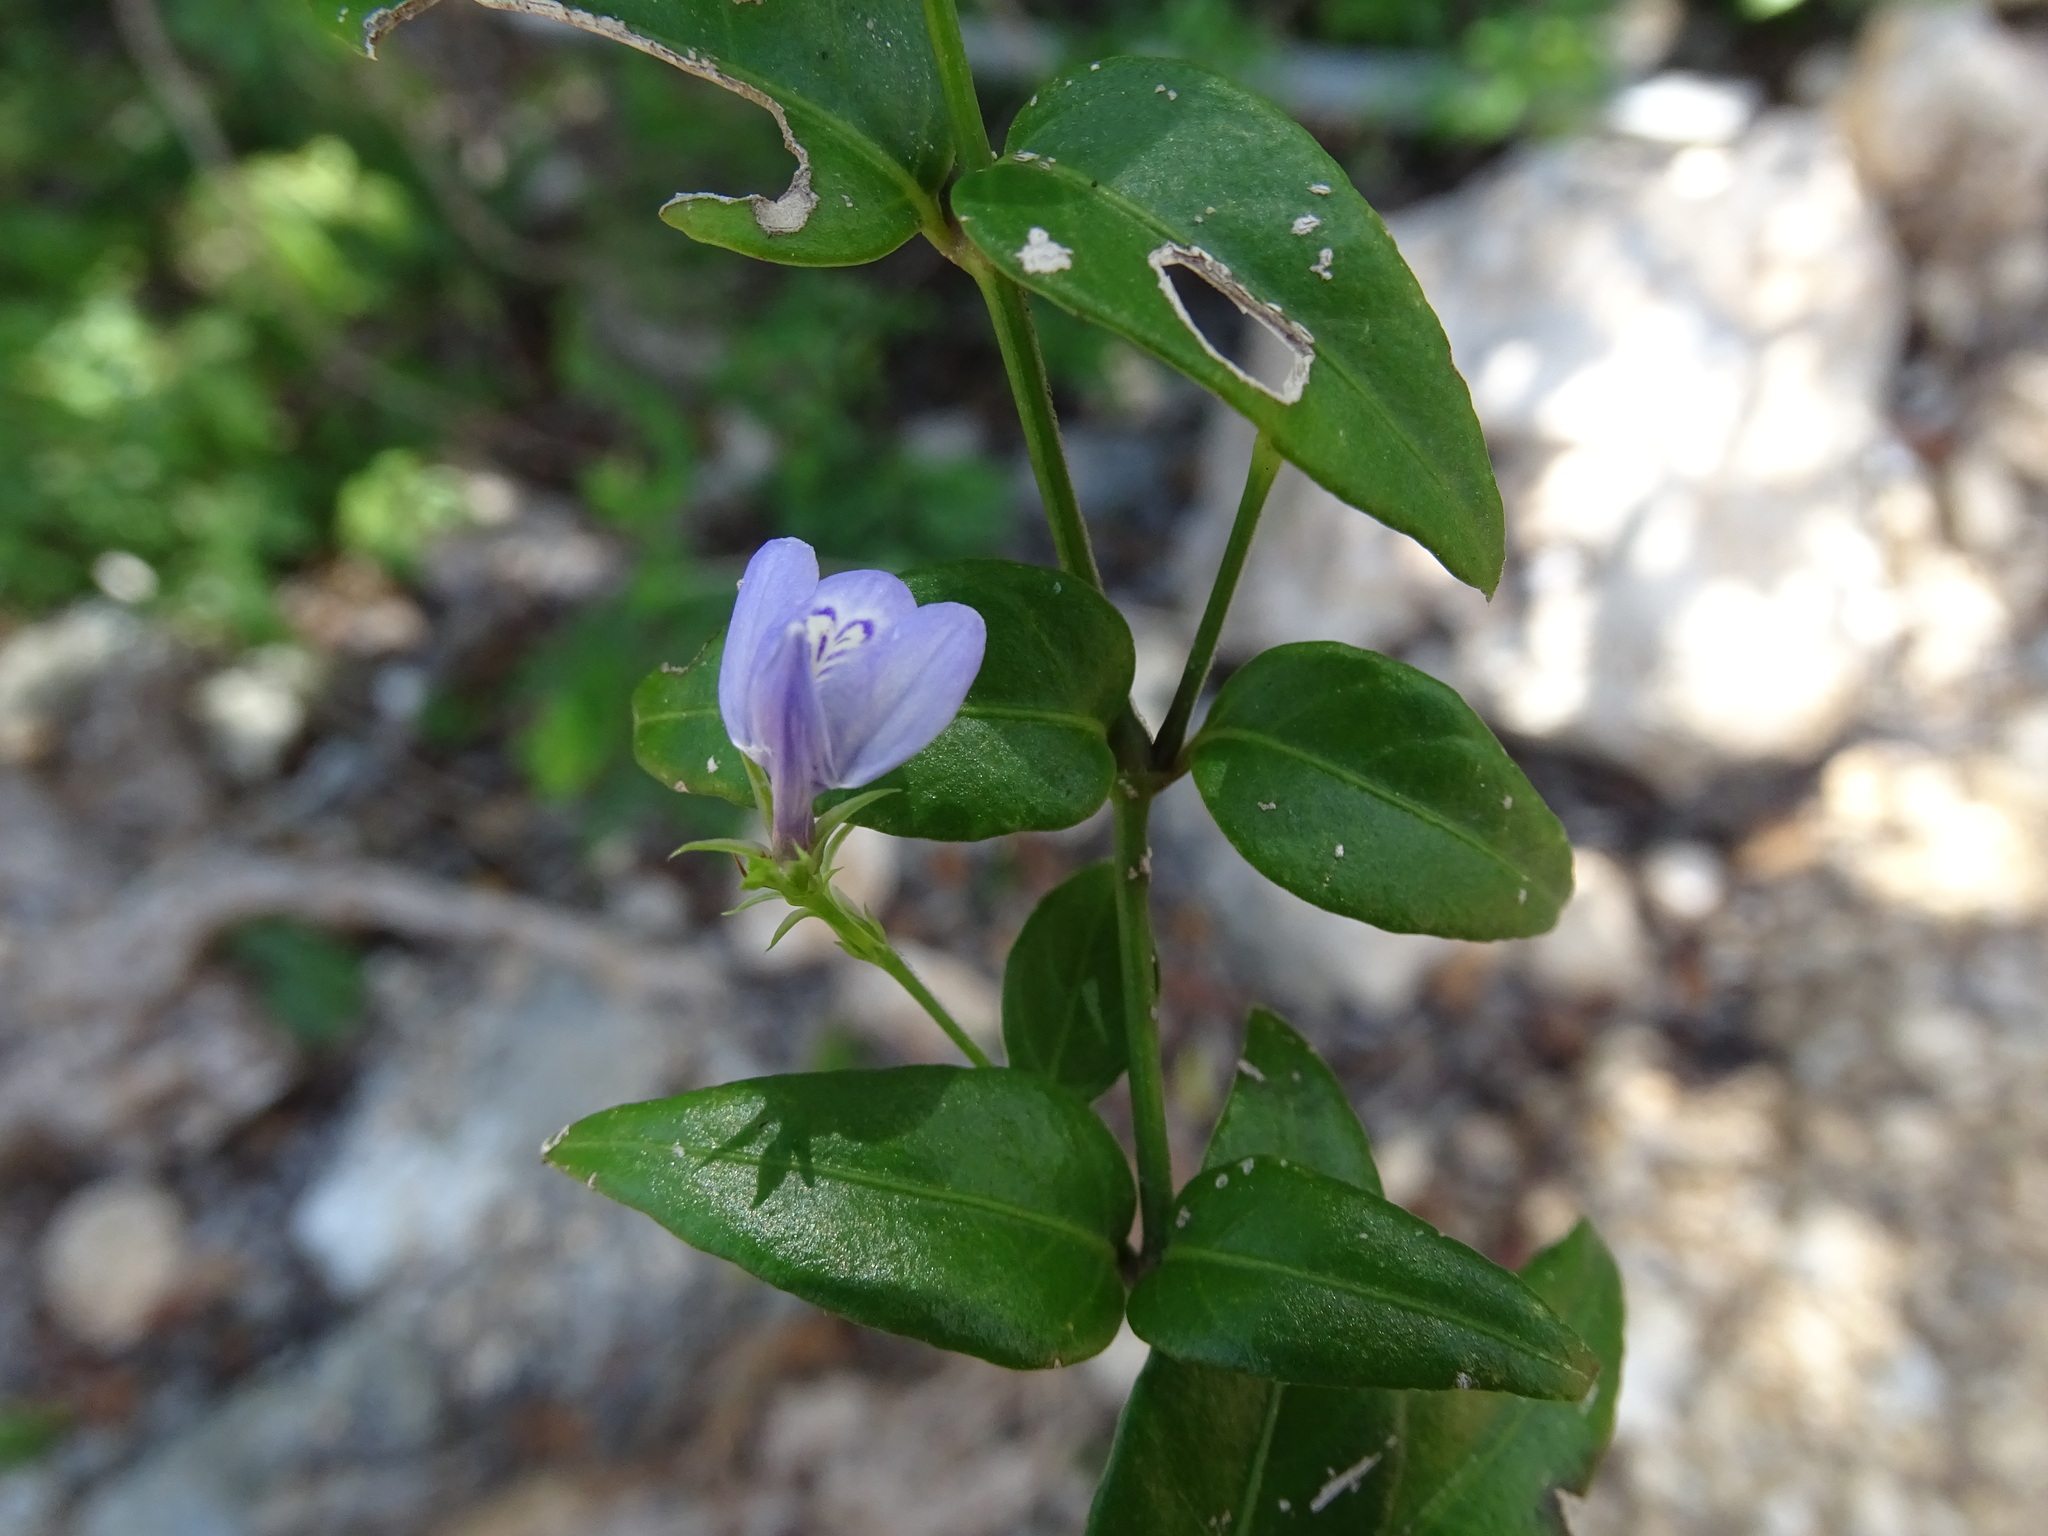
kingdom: Plantae
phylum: Tracheophyta
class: Magnoliopsida
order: Lamiales
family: Acanthaceae
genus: Justicia
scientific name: Justicia cobensis
